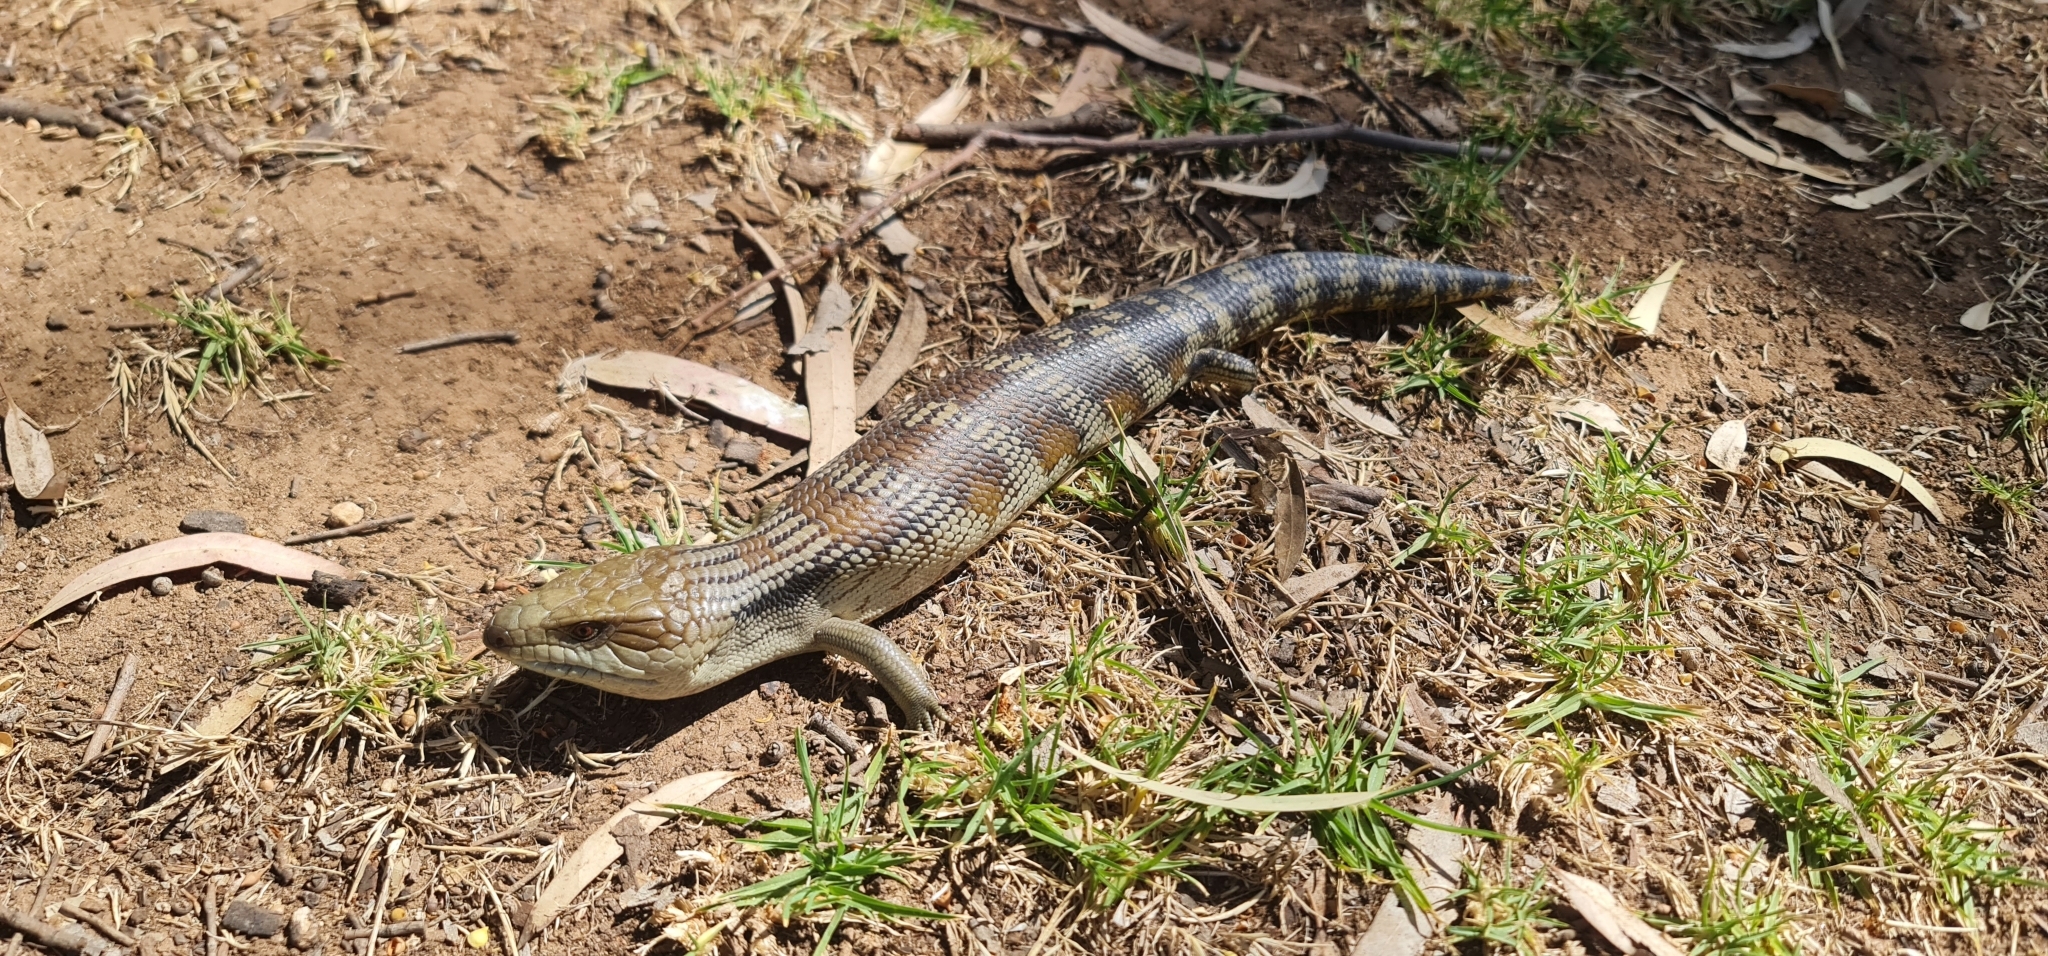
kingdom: Animalia
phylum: Chordata
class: Squamata
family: Scincidae
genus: Tiliqua
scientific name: Tiliqua scincoides
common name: Common bluetongue
